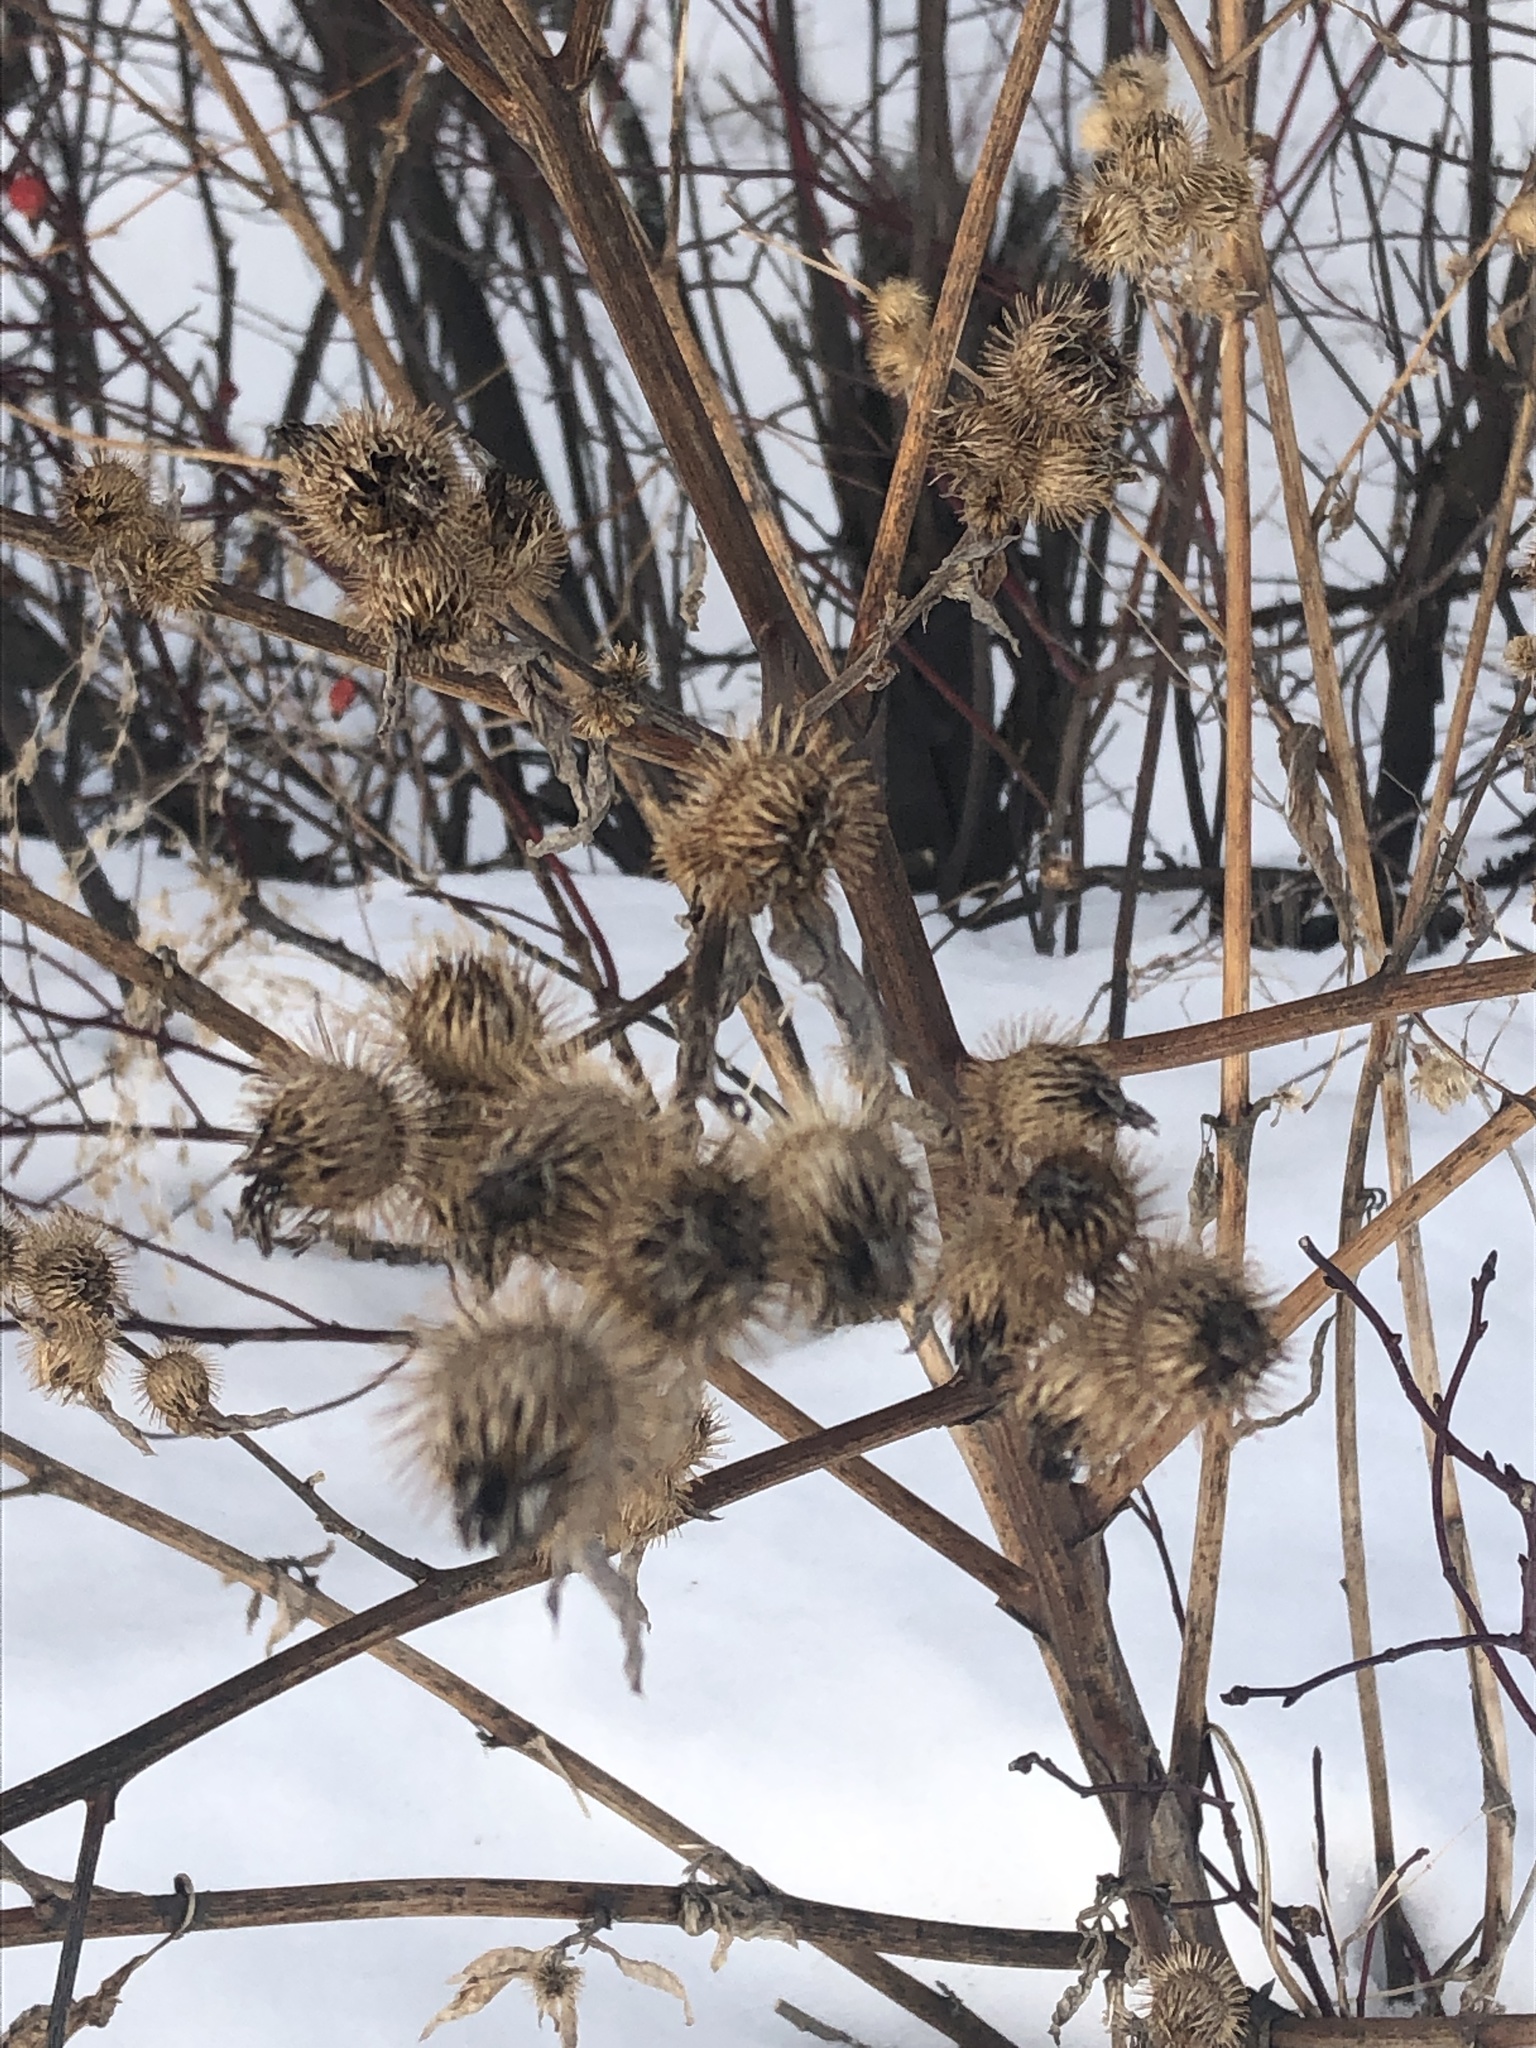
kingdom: Plantae
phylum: Tracheophyta
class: Magnoliopsida
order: Asterales
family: Asteraceae
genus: Arctium
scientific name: Arctium minus
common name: Lesser burdock
